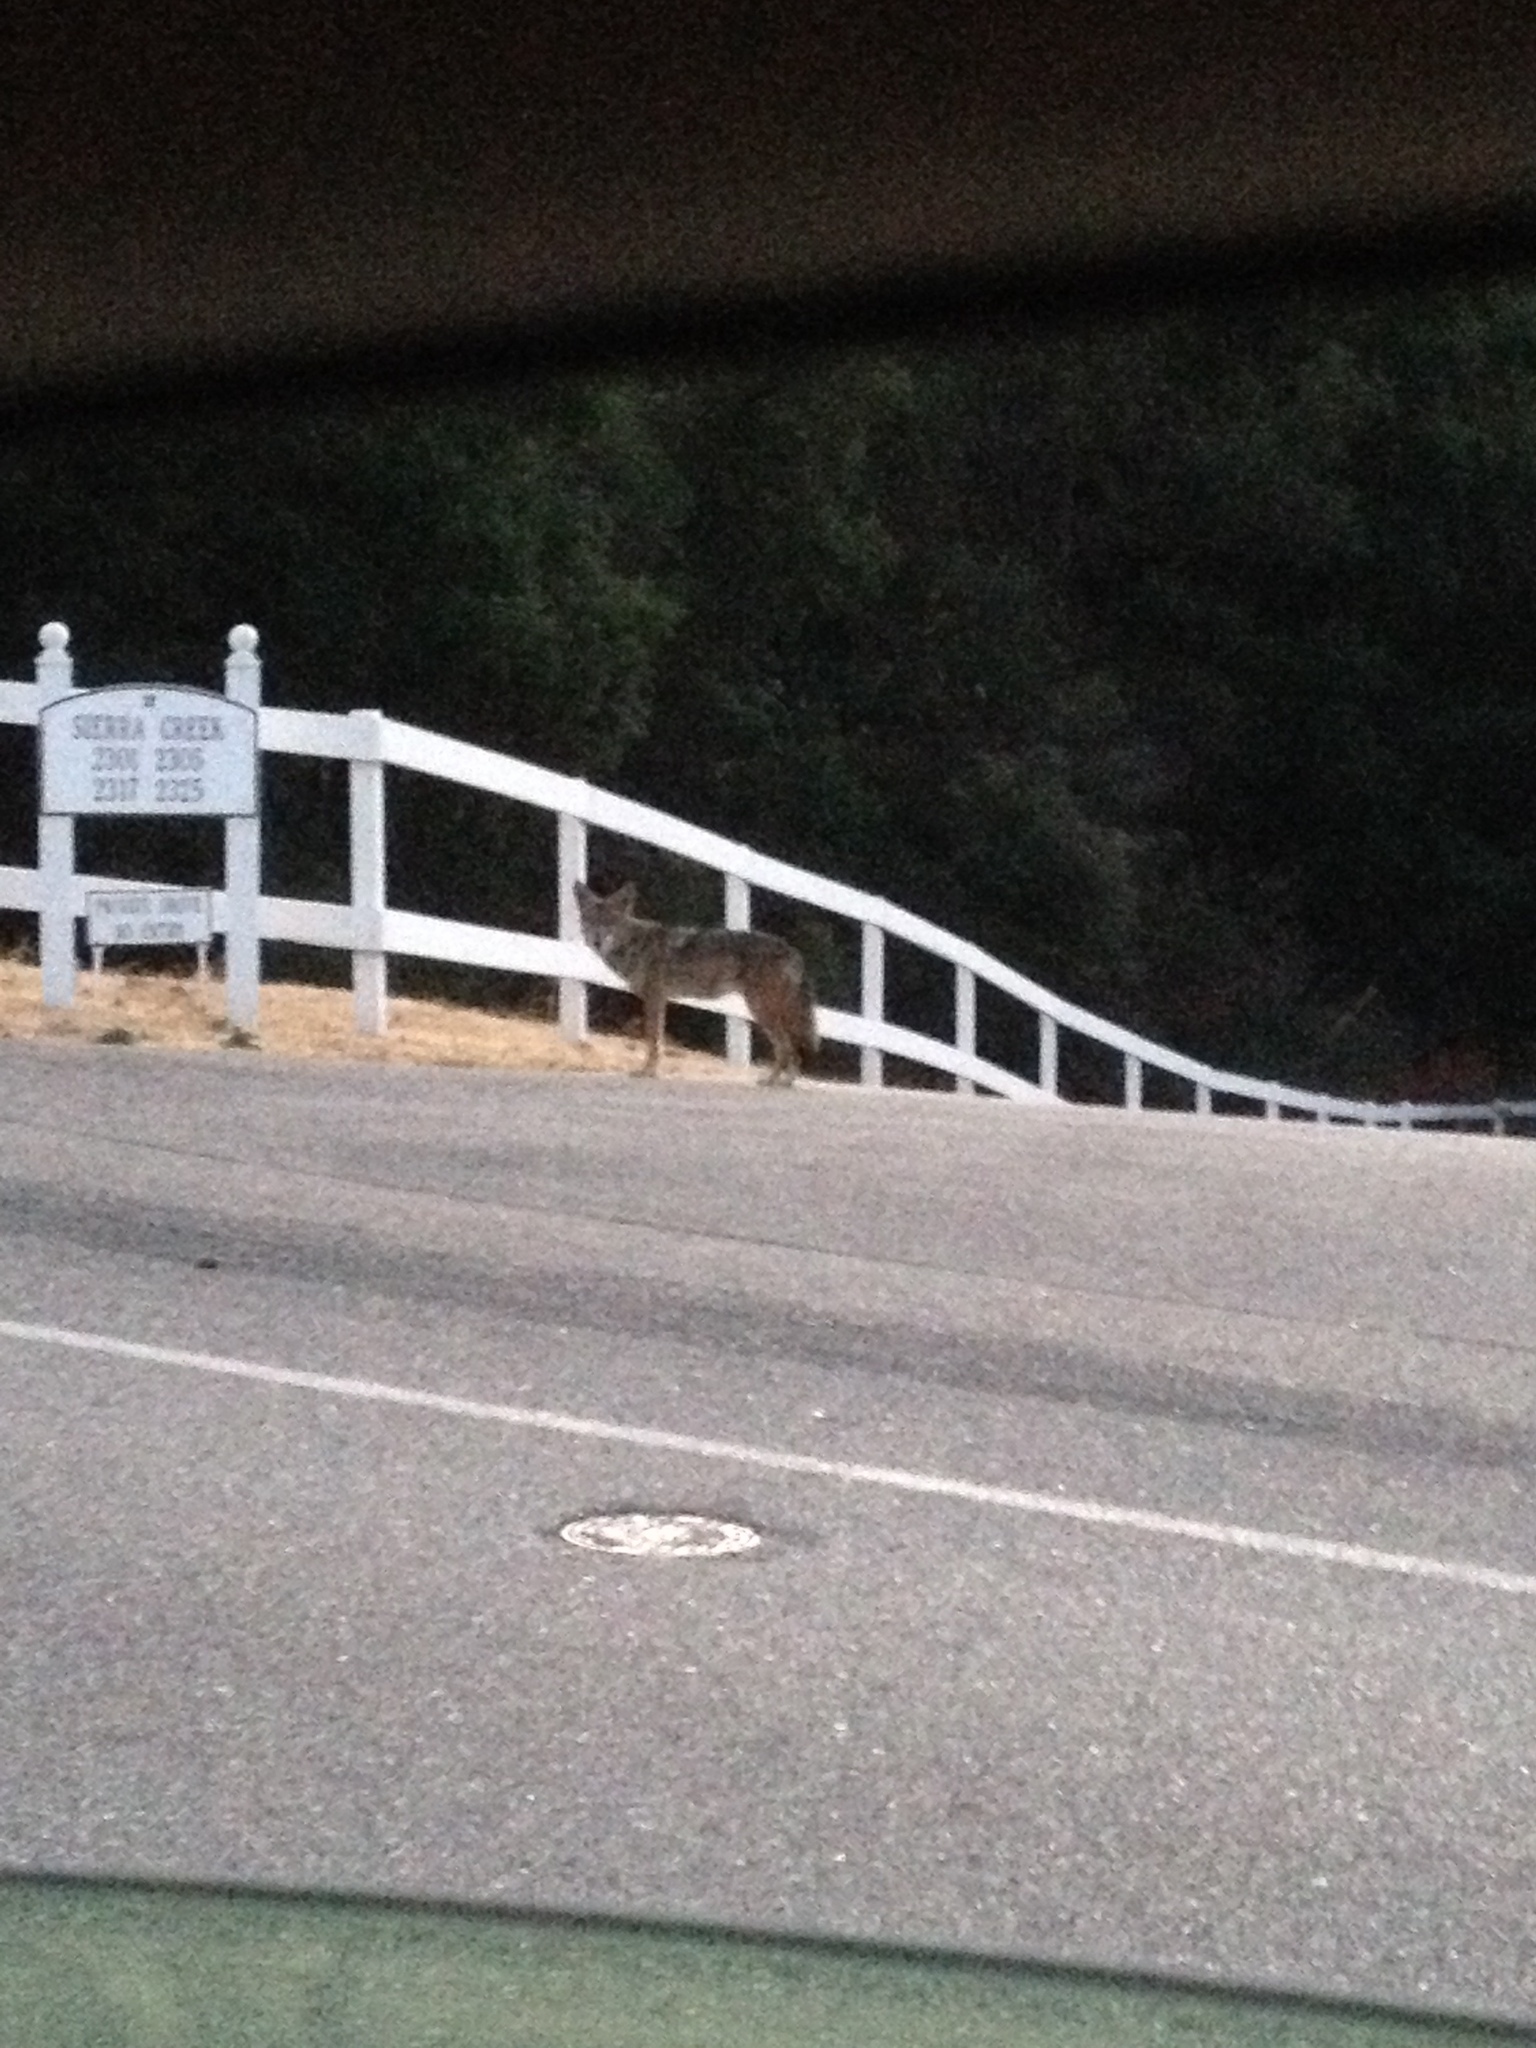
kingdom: Animalia
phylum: Chordata
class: Mammalia
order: Carnivora
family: Canidae
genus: Canis
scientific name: Canis latrans
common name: Coyote
